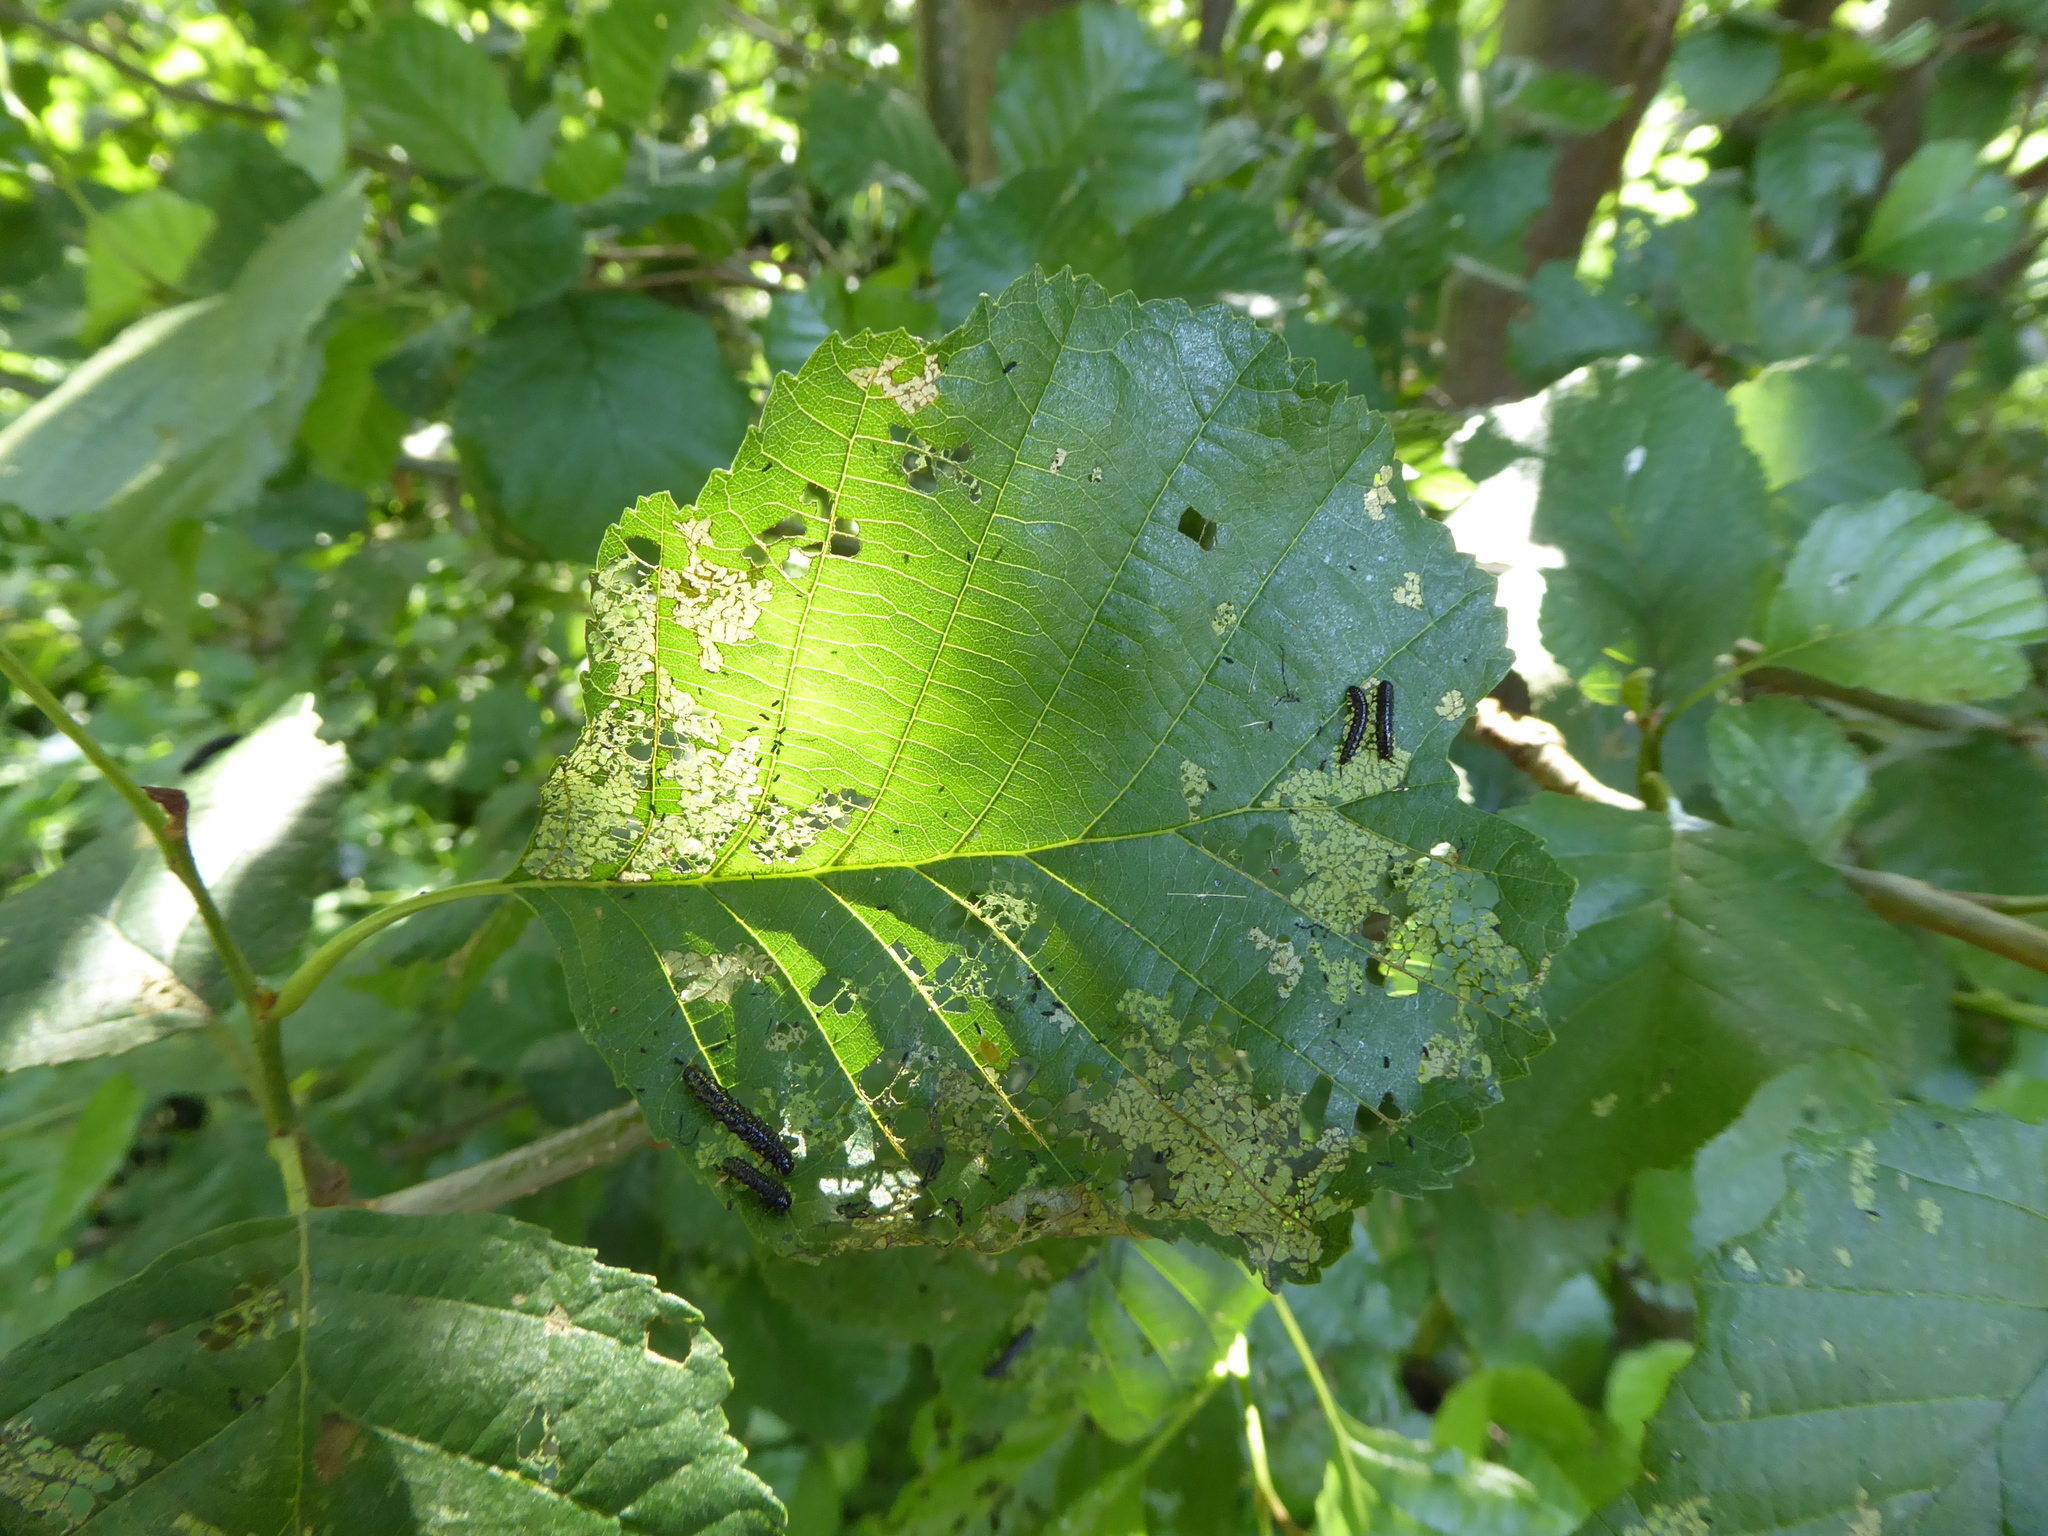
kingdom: Plantae
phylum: Tracheophyta
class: Magnoliopsida
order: Fagales
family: Betulaceae
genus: Alnus
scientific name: Alnus glutinosa
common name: Black alder
